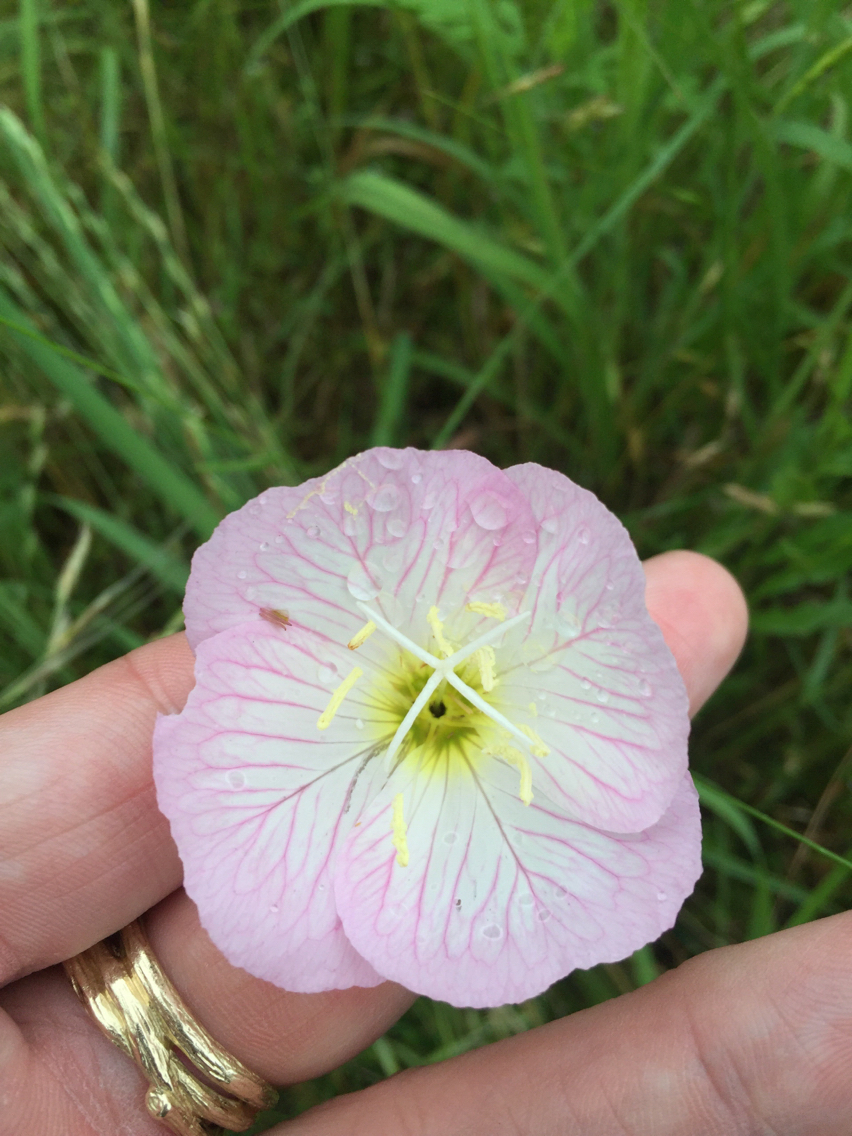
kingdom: Plantae
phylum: Tracheophyta
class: Magnoliopsida
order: Myrtales
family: Onagraceae
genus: Oenothera
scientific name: Oenothera speciosa
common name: White evening-primrose
